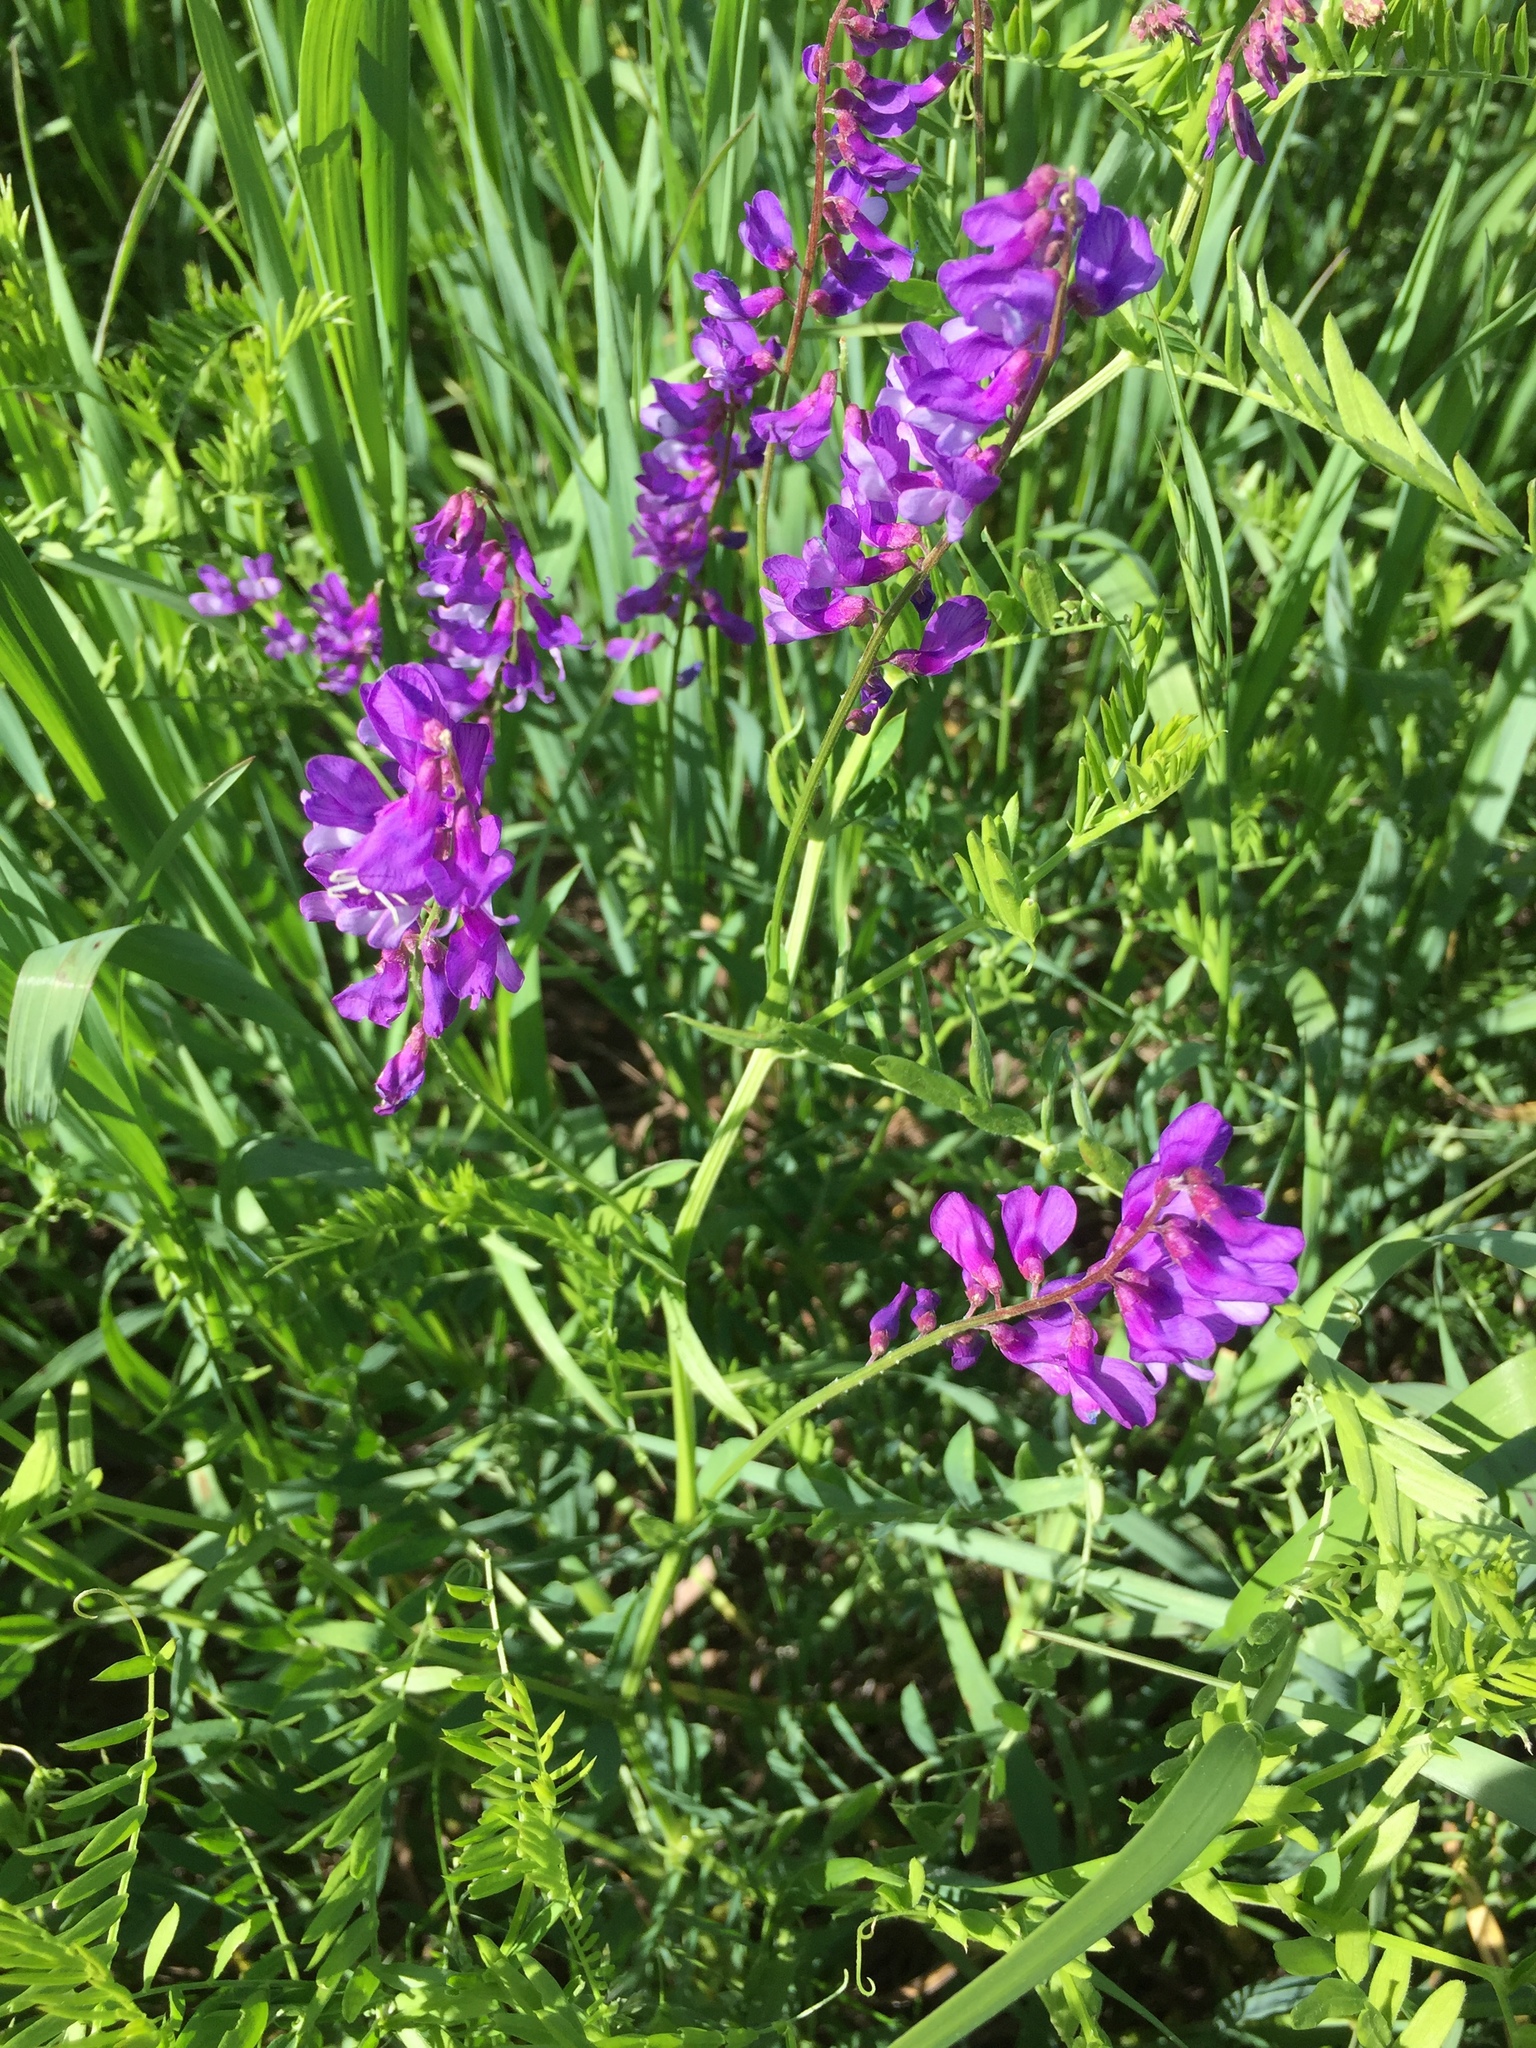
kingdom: Plantae
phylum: Tracheophyta
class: Magnoliopsida
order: Fabales
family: Fabaceae
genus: Vicia
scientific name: Vicia tenuifolia
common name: Fine-leaved vetch
